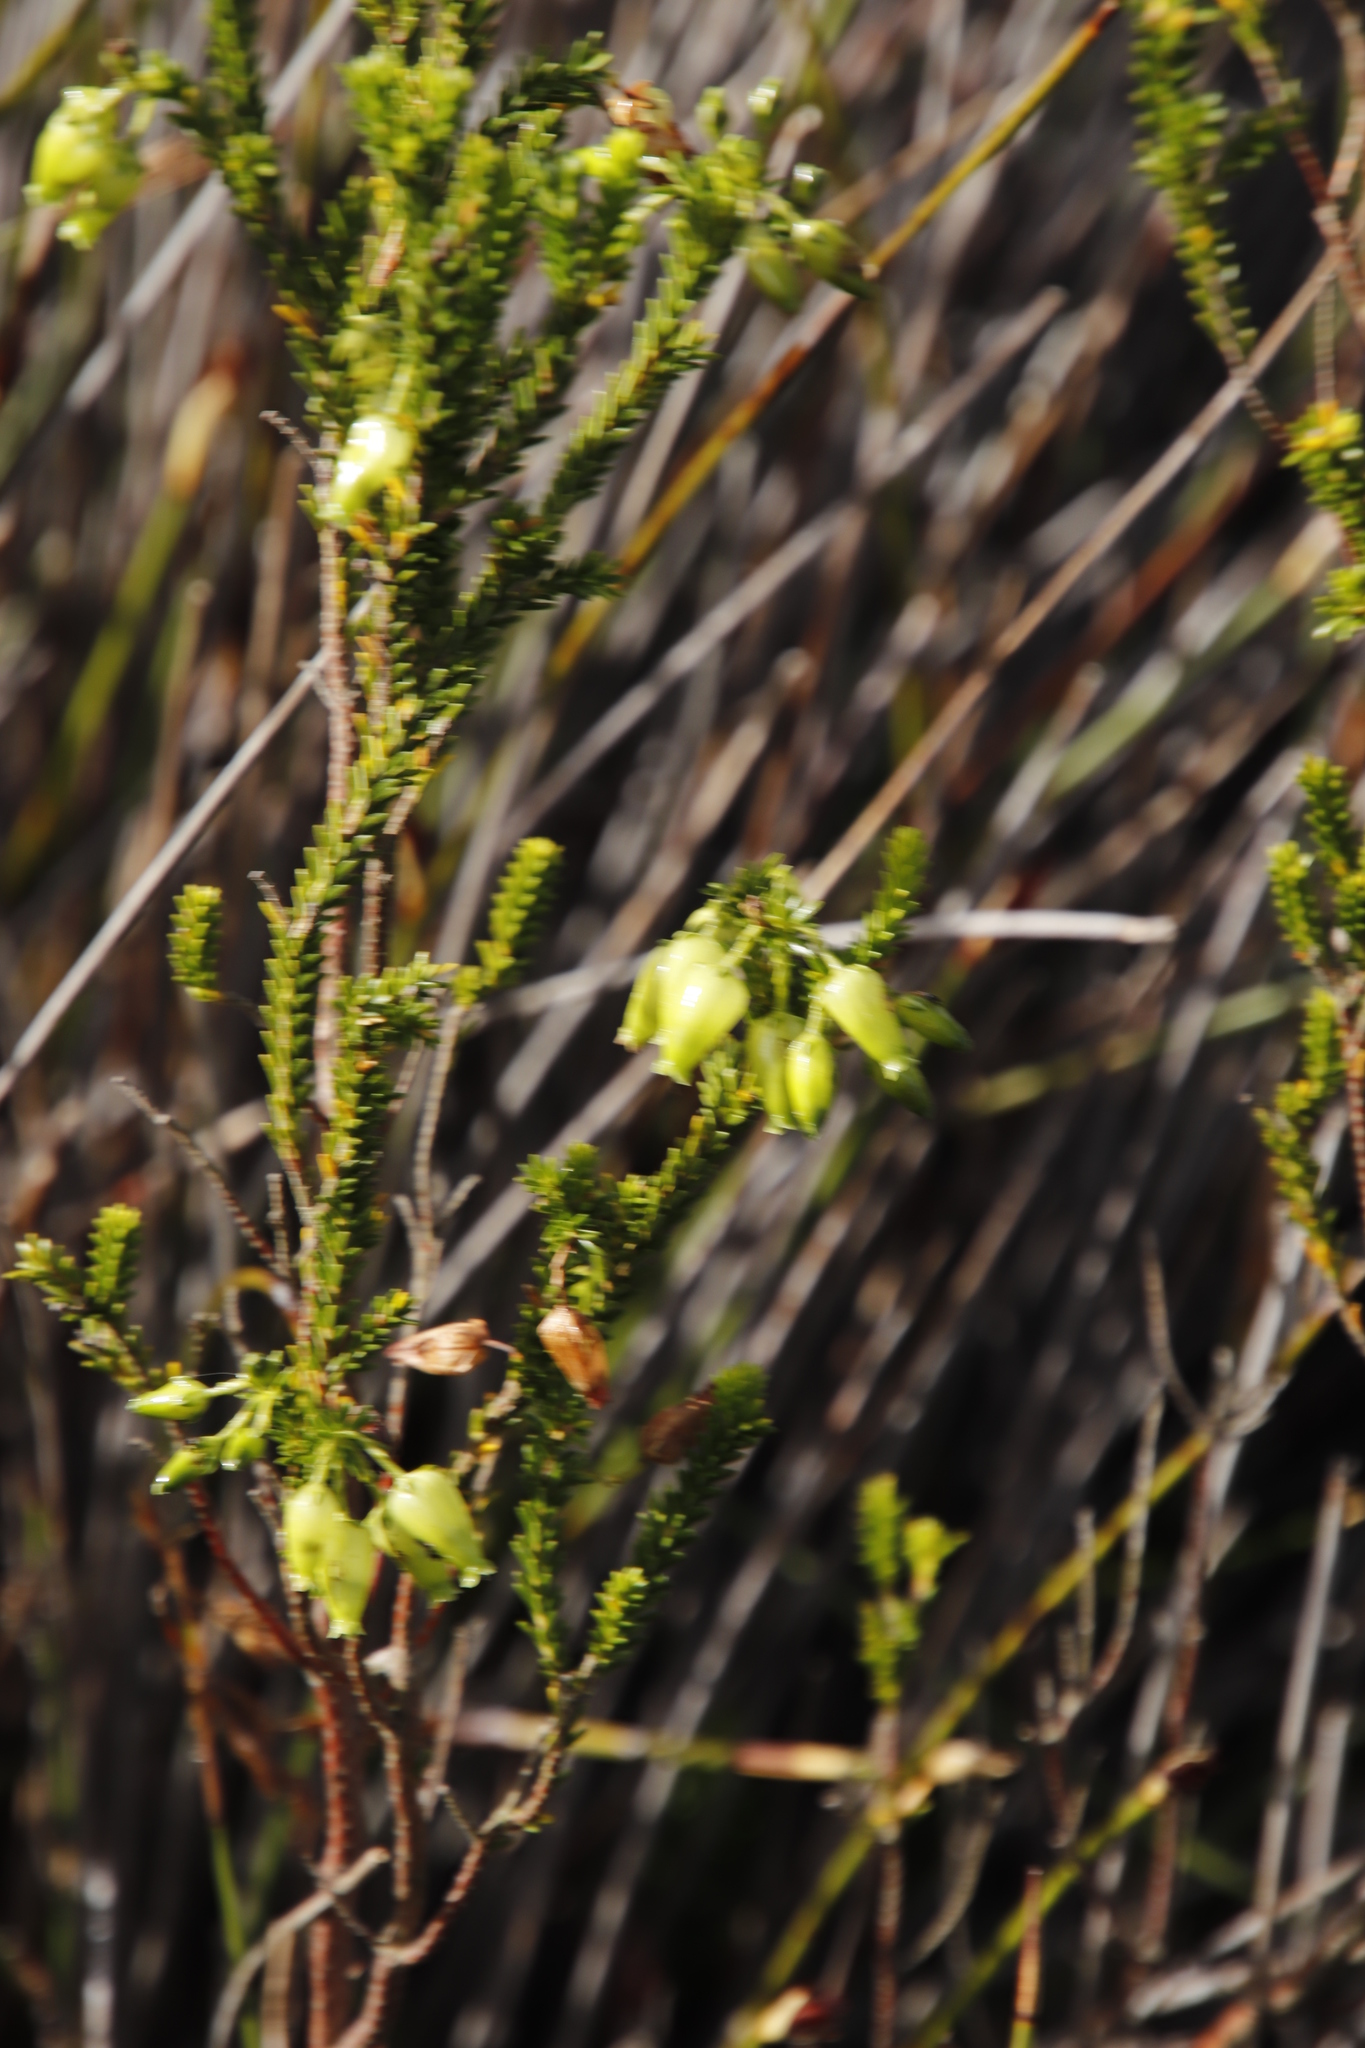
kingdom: Plantae
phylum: Tracheophyta
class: Magnoliopsida
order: Ericales
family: Ericaceae
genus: Erica
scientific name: Erica urna-viridis
